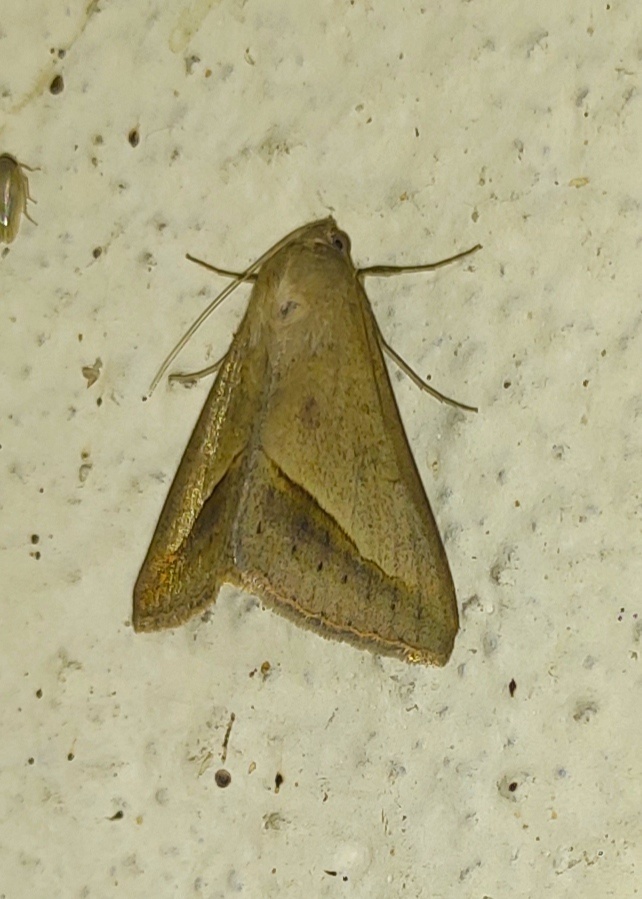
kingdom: Animalia
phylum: Arthropoda
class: Insecta
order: Lepidoptera
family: Erebidae
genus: Mocis
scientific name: Mocis frugalis
